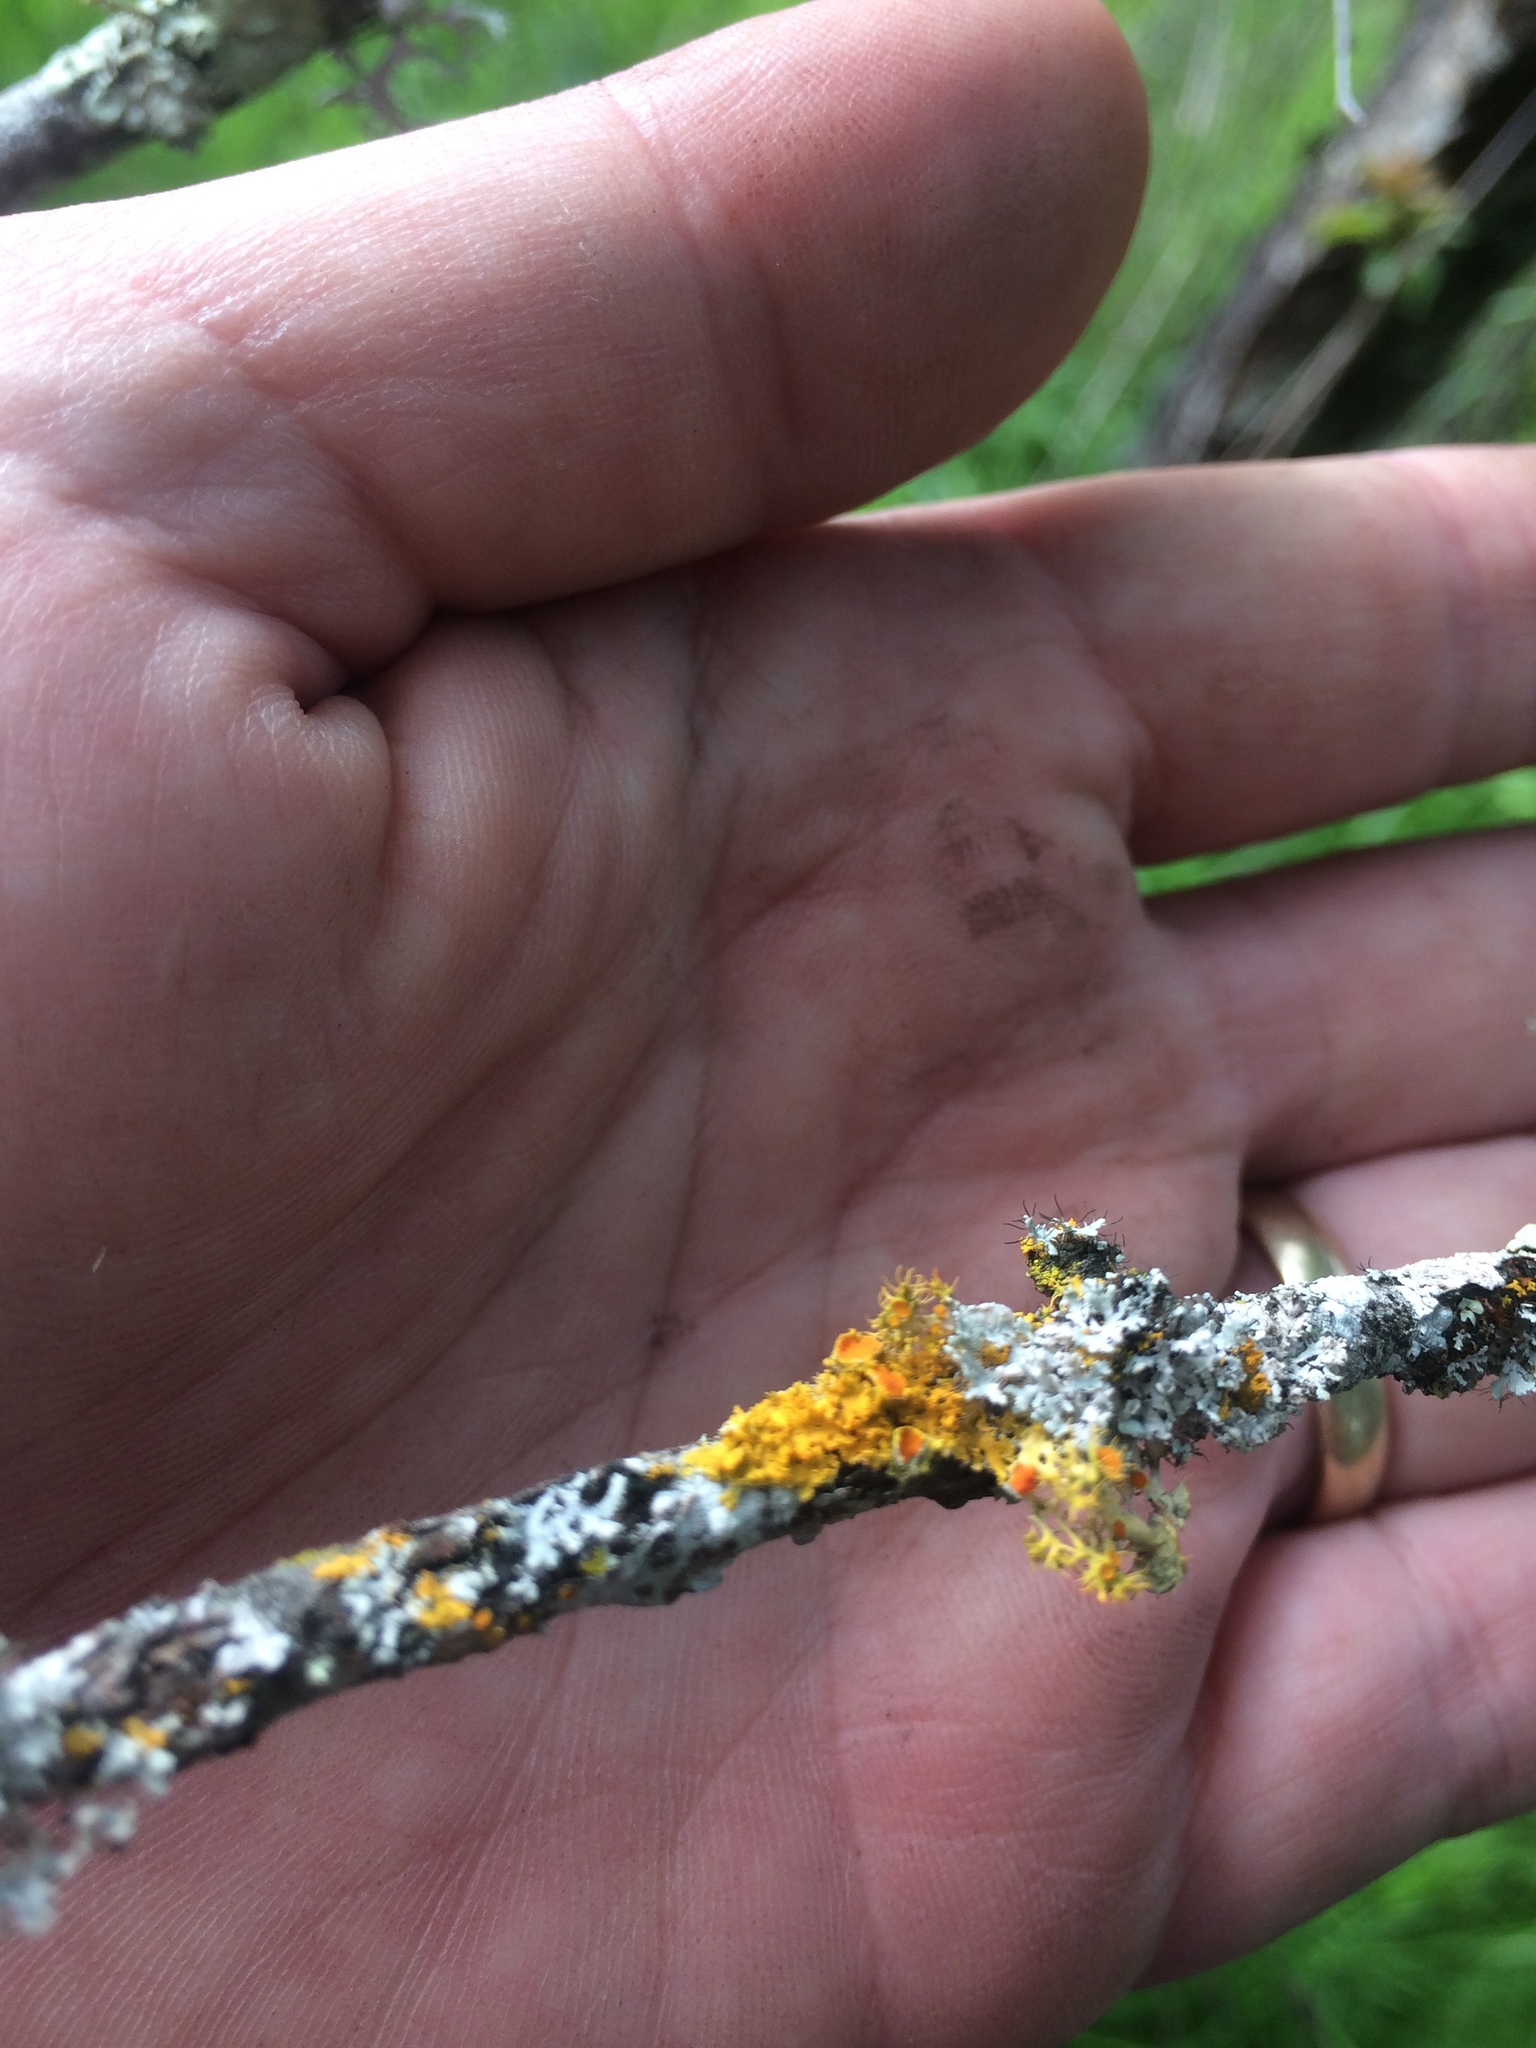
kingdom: Fungi
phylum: Ascomycota
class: Lecanoromycetes
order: Teloschistales
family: Teloschistaceae
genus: Niorma
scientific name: Niorma chrysophthalma
